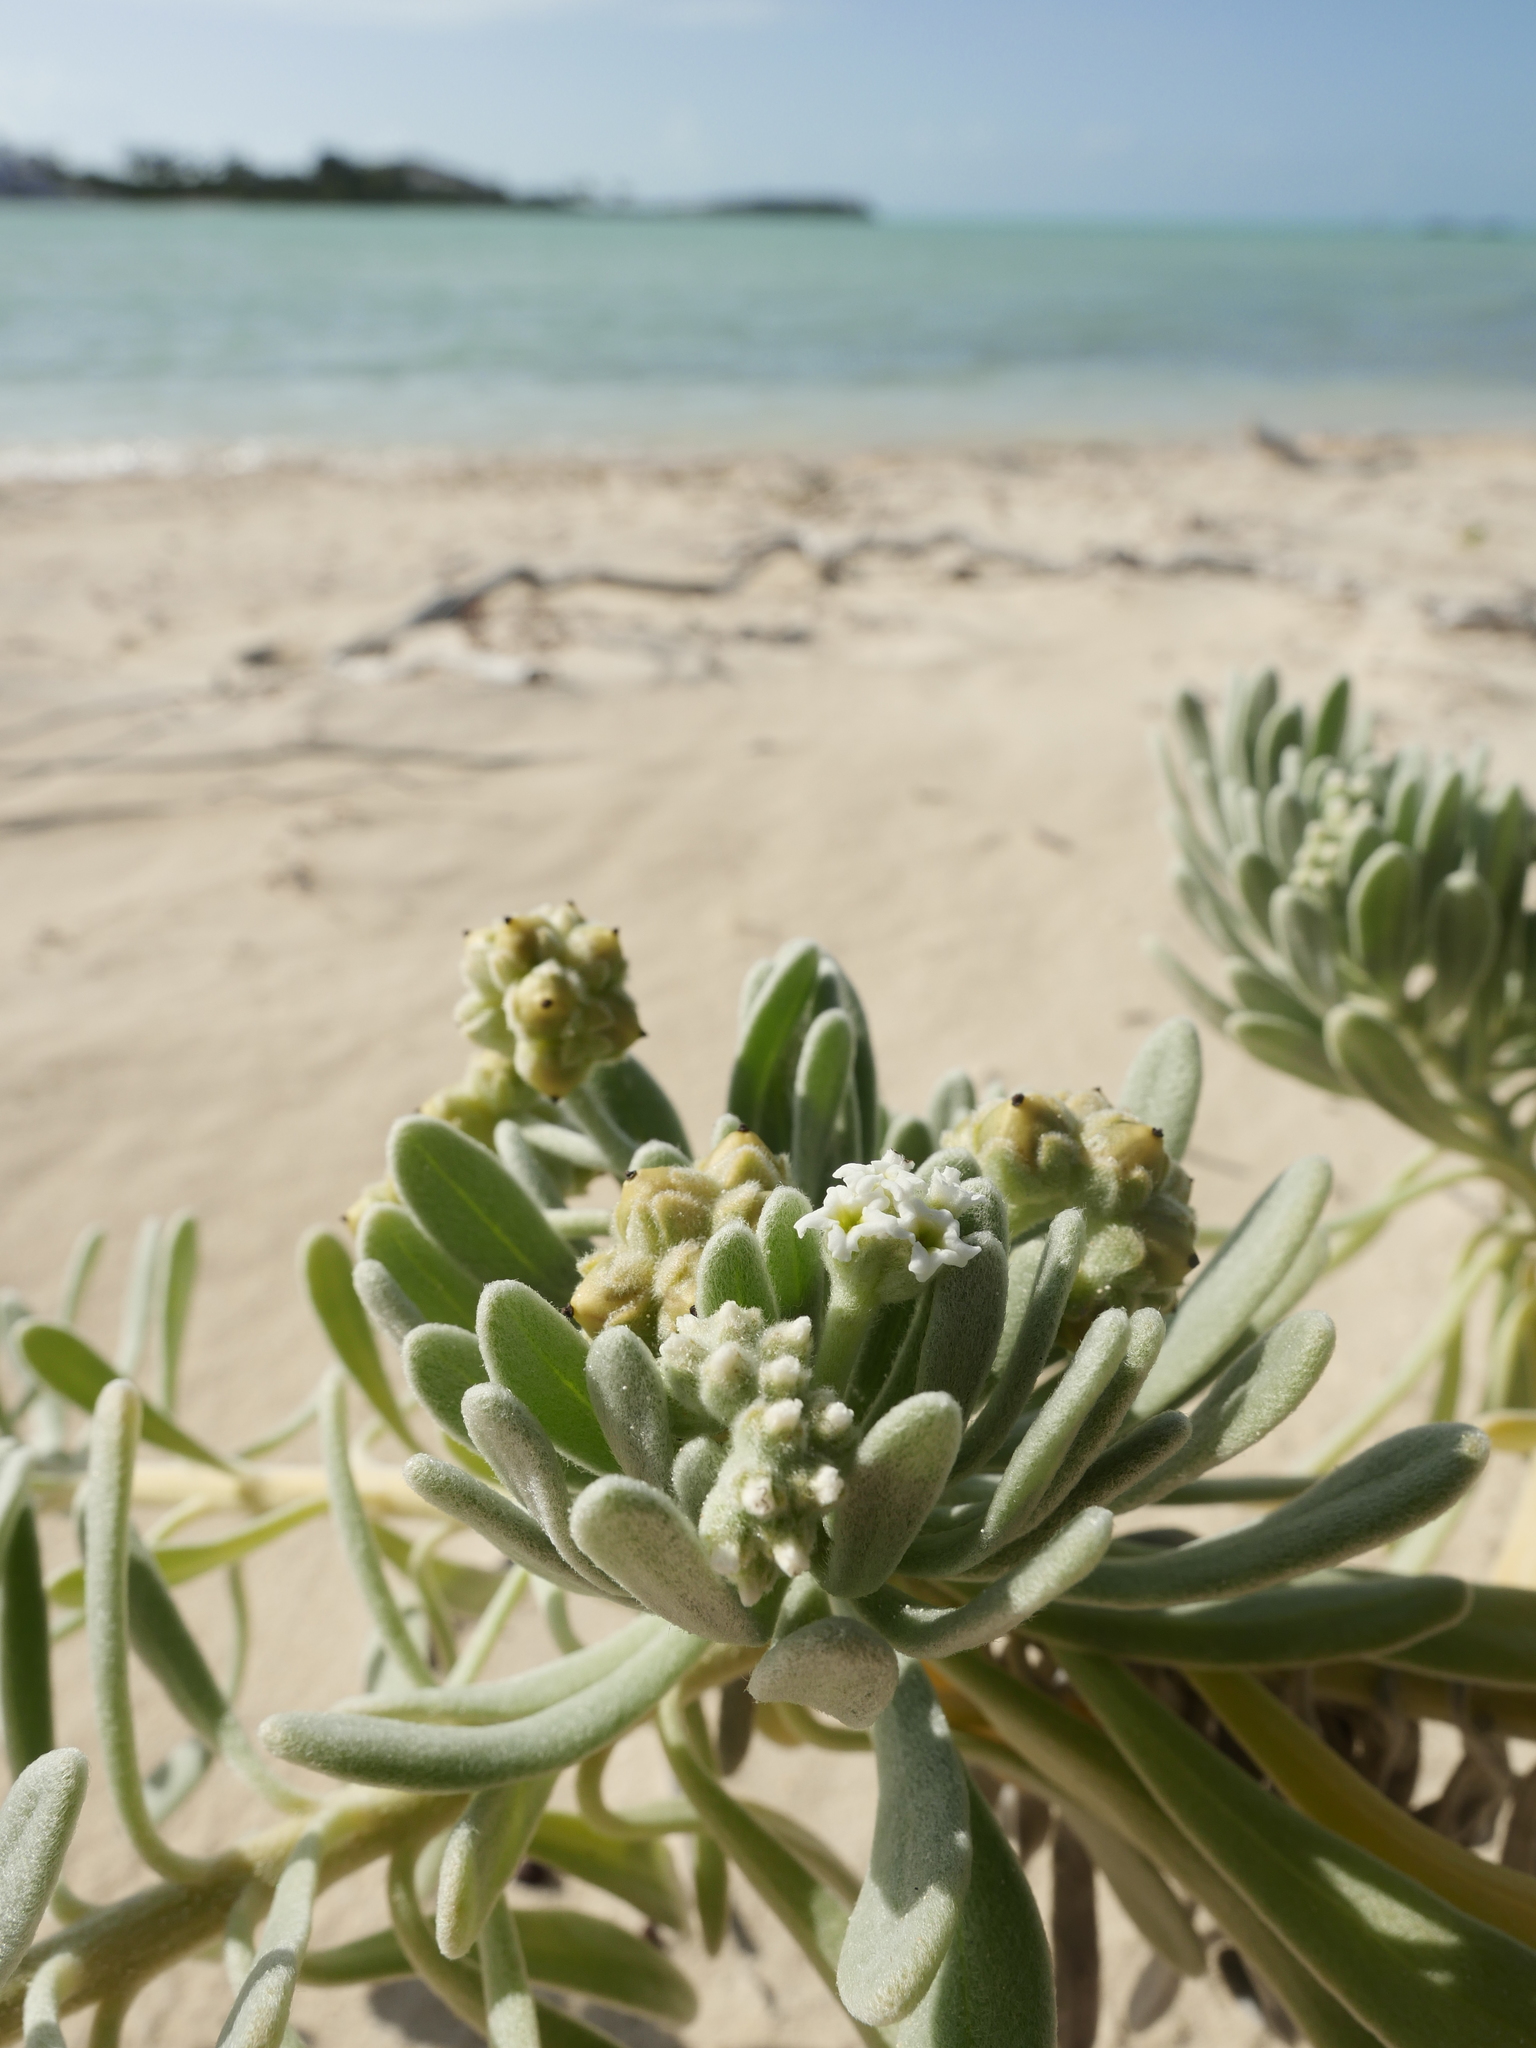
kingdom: Plantae
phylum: Tracheophyta
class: Magnoliopsida
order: Boraginales
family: Heliotropiaceae
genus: Tournefortia
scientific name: Tournefortia gnaphalodes
